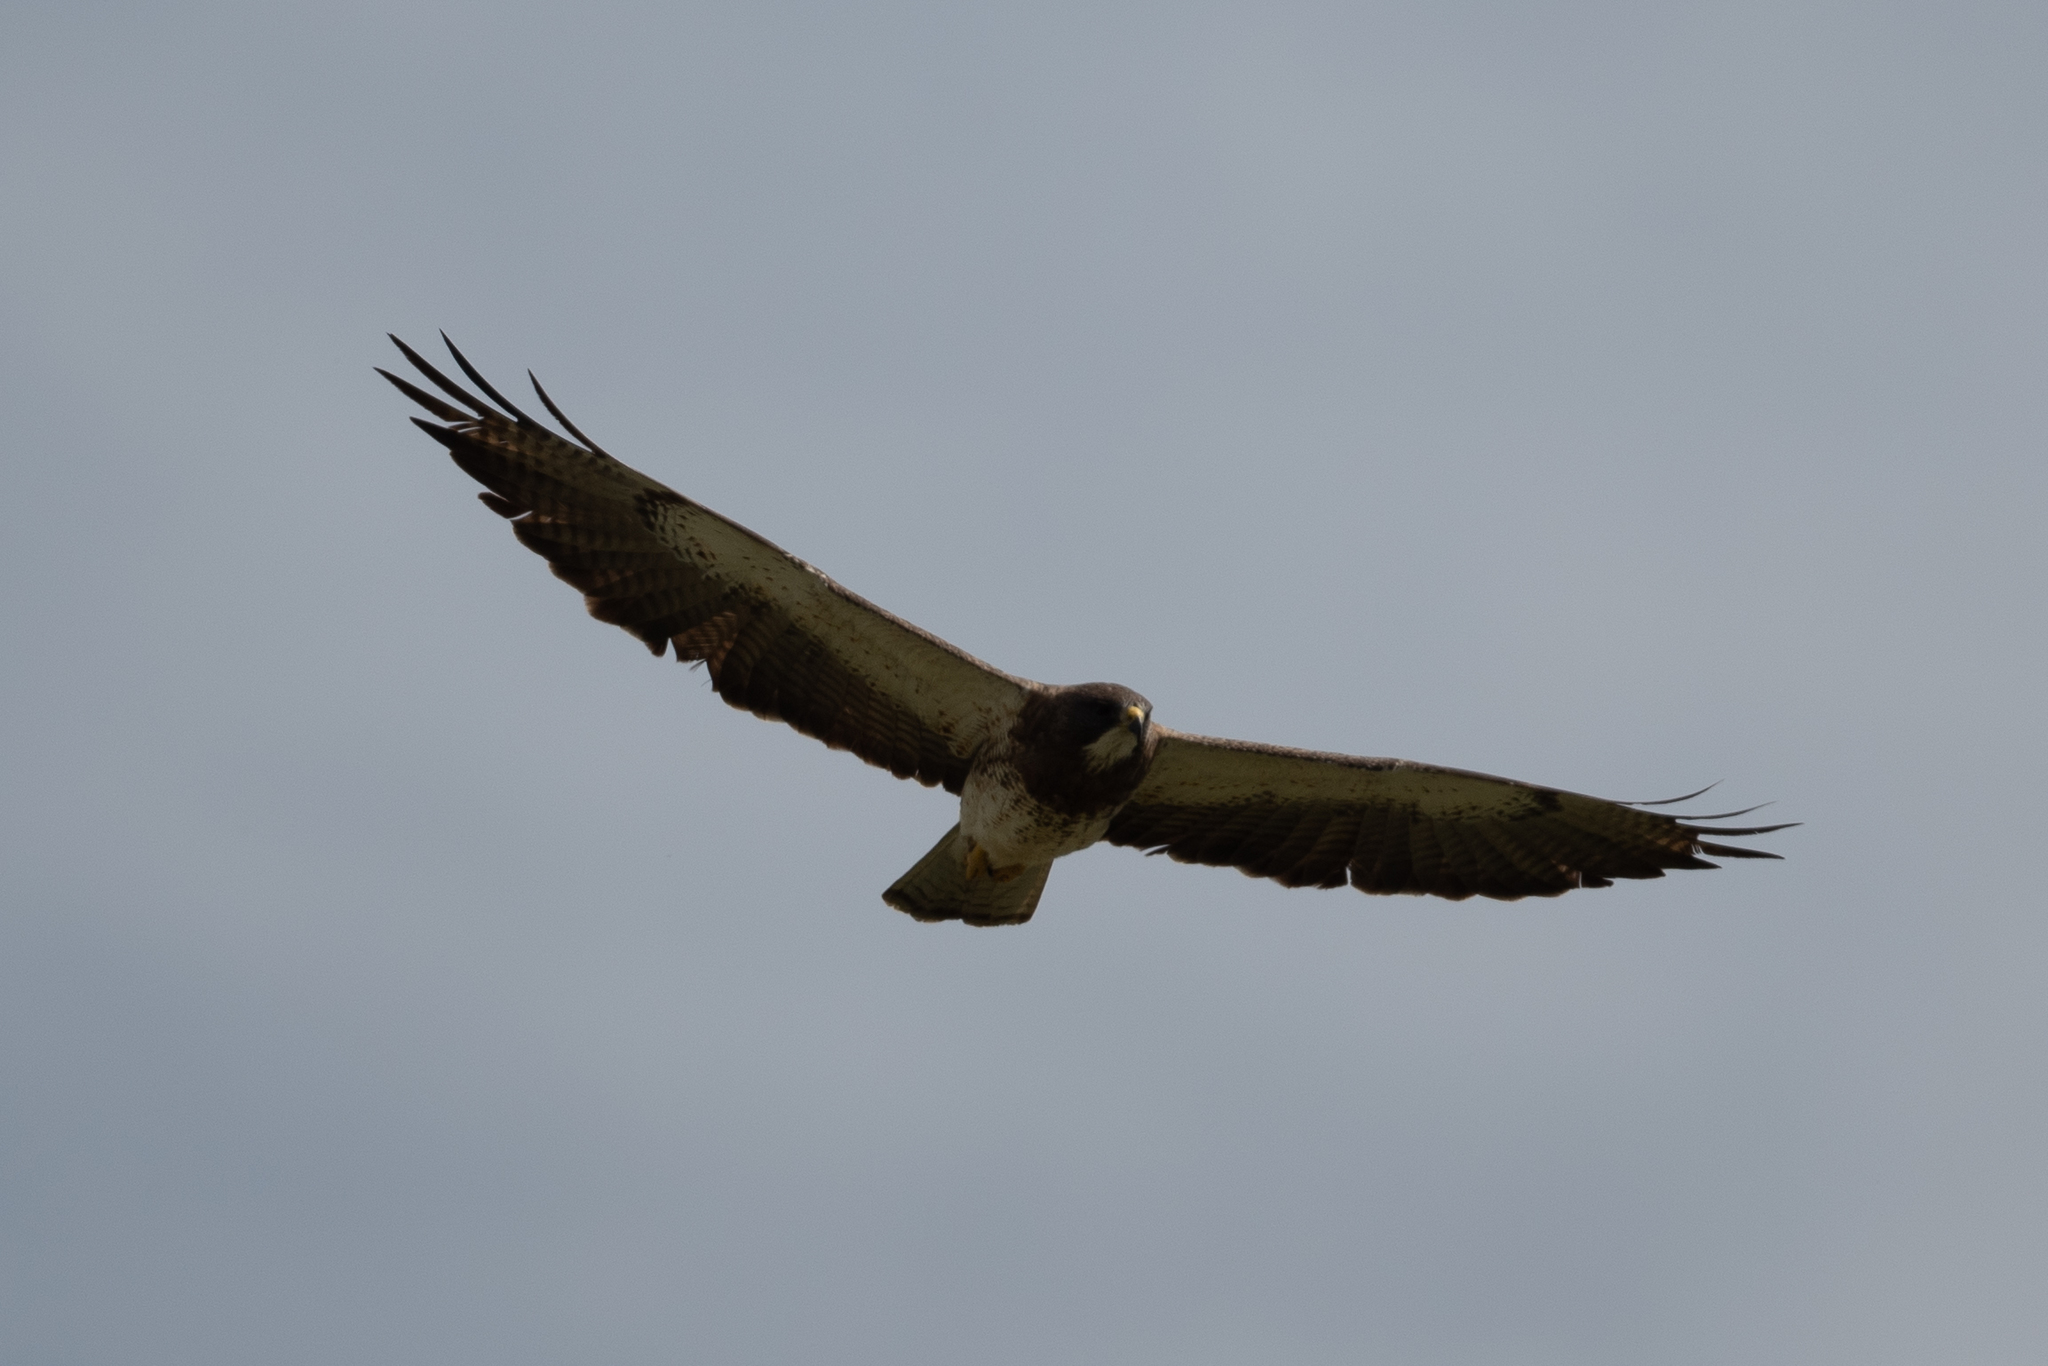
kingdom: Animalia
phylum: Chordata
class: Aves
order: Accipitriformes
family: Accipitridae
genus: Buteo
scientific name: Buteo swainsoni
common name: Swainson's hawk
